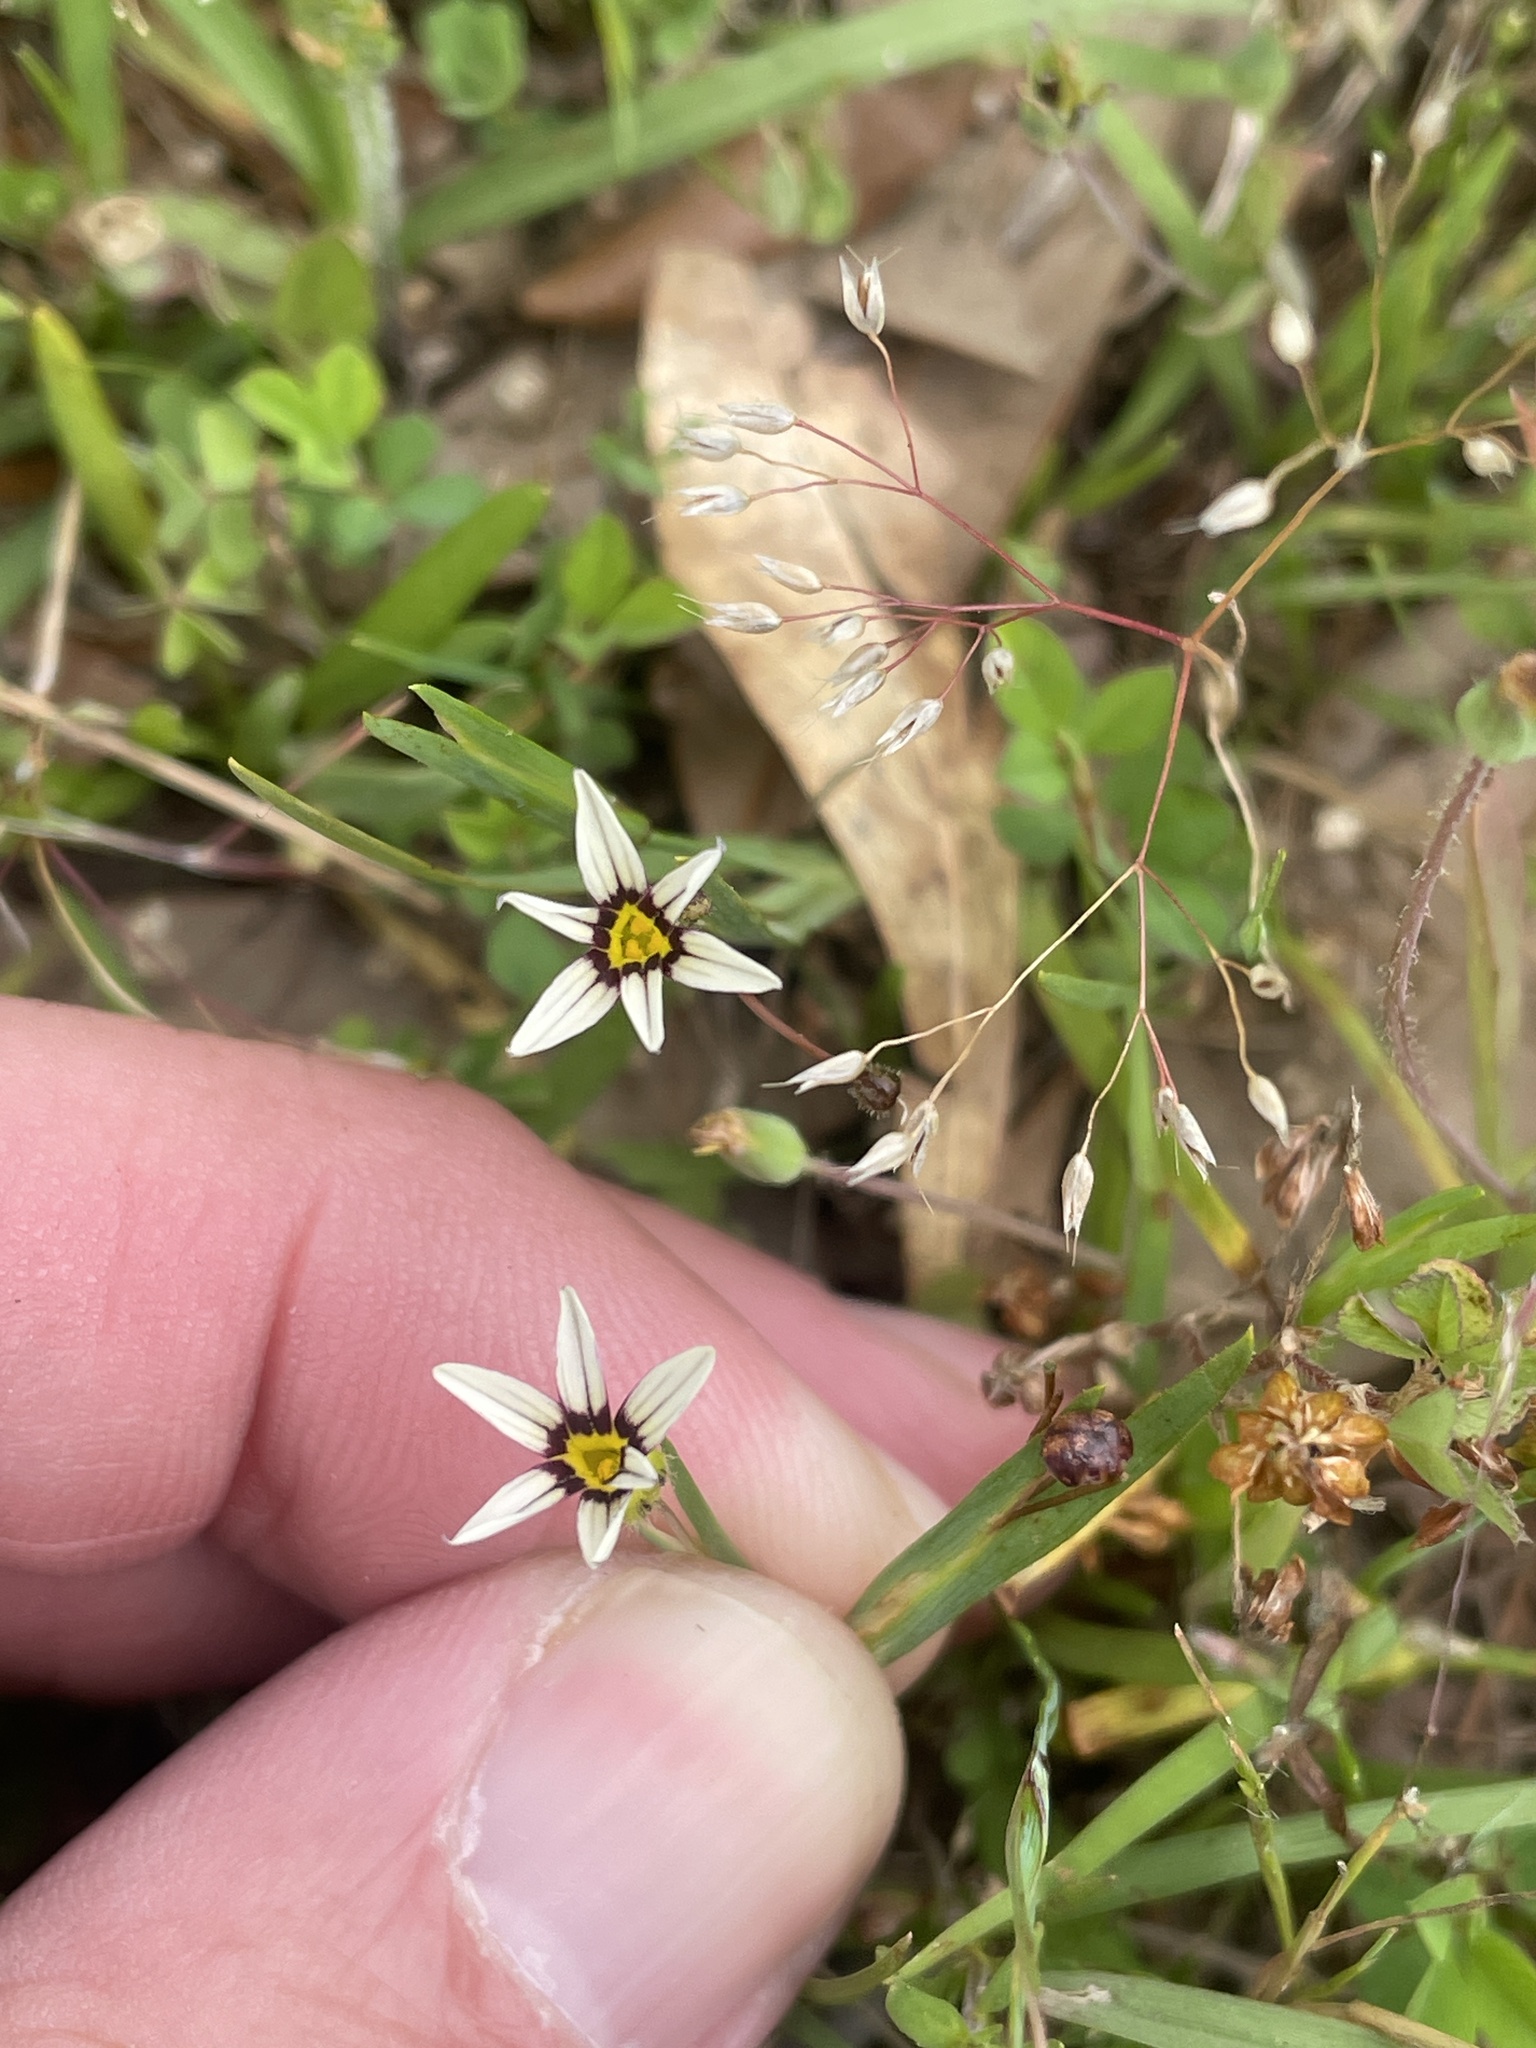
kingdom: Plantae
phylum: Tracheophyta
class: Liliopsida
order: Asparagales
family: Iridaceae
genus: Sisyrinchium
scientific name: Sisyrinchium micranthum
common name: Bermuda pigroot
